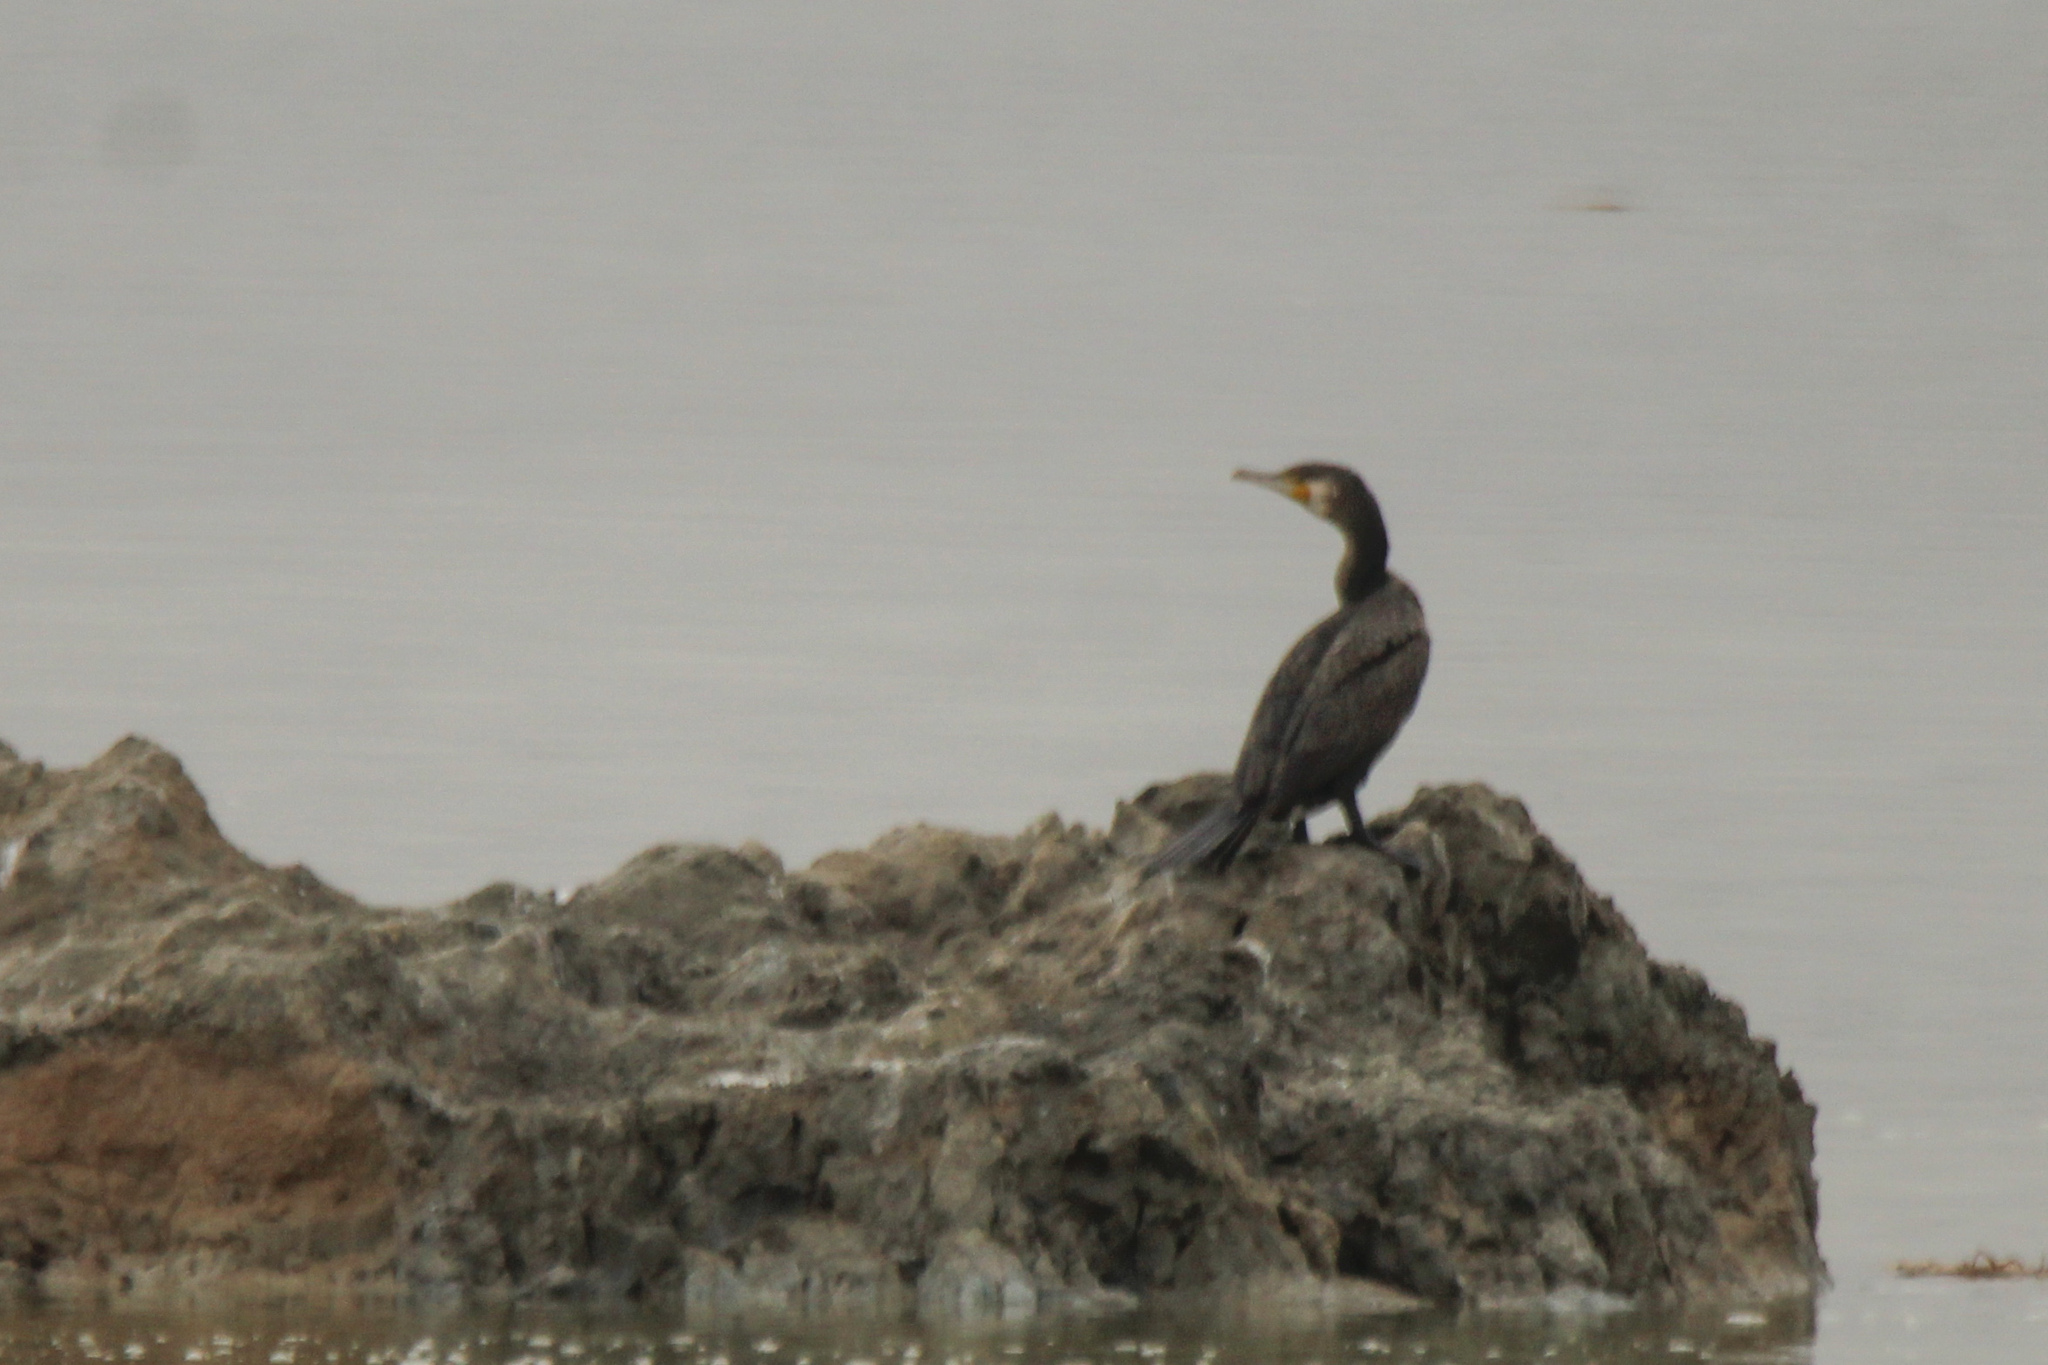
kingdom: Animalia
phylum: Chordata
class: Aves
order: Suliformes
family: Phalacrocoracidae
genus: Phalacrocorax
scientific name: Phalacrocorax carbo
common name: Great cormorant
